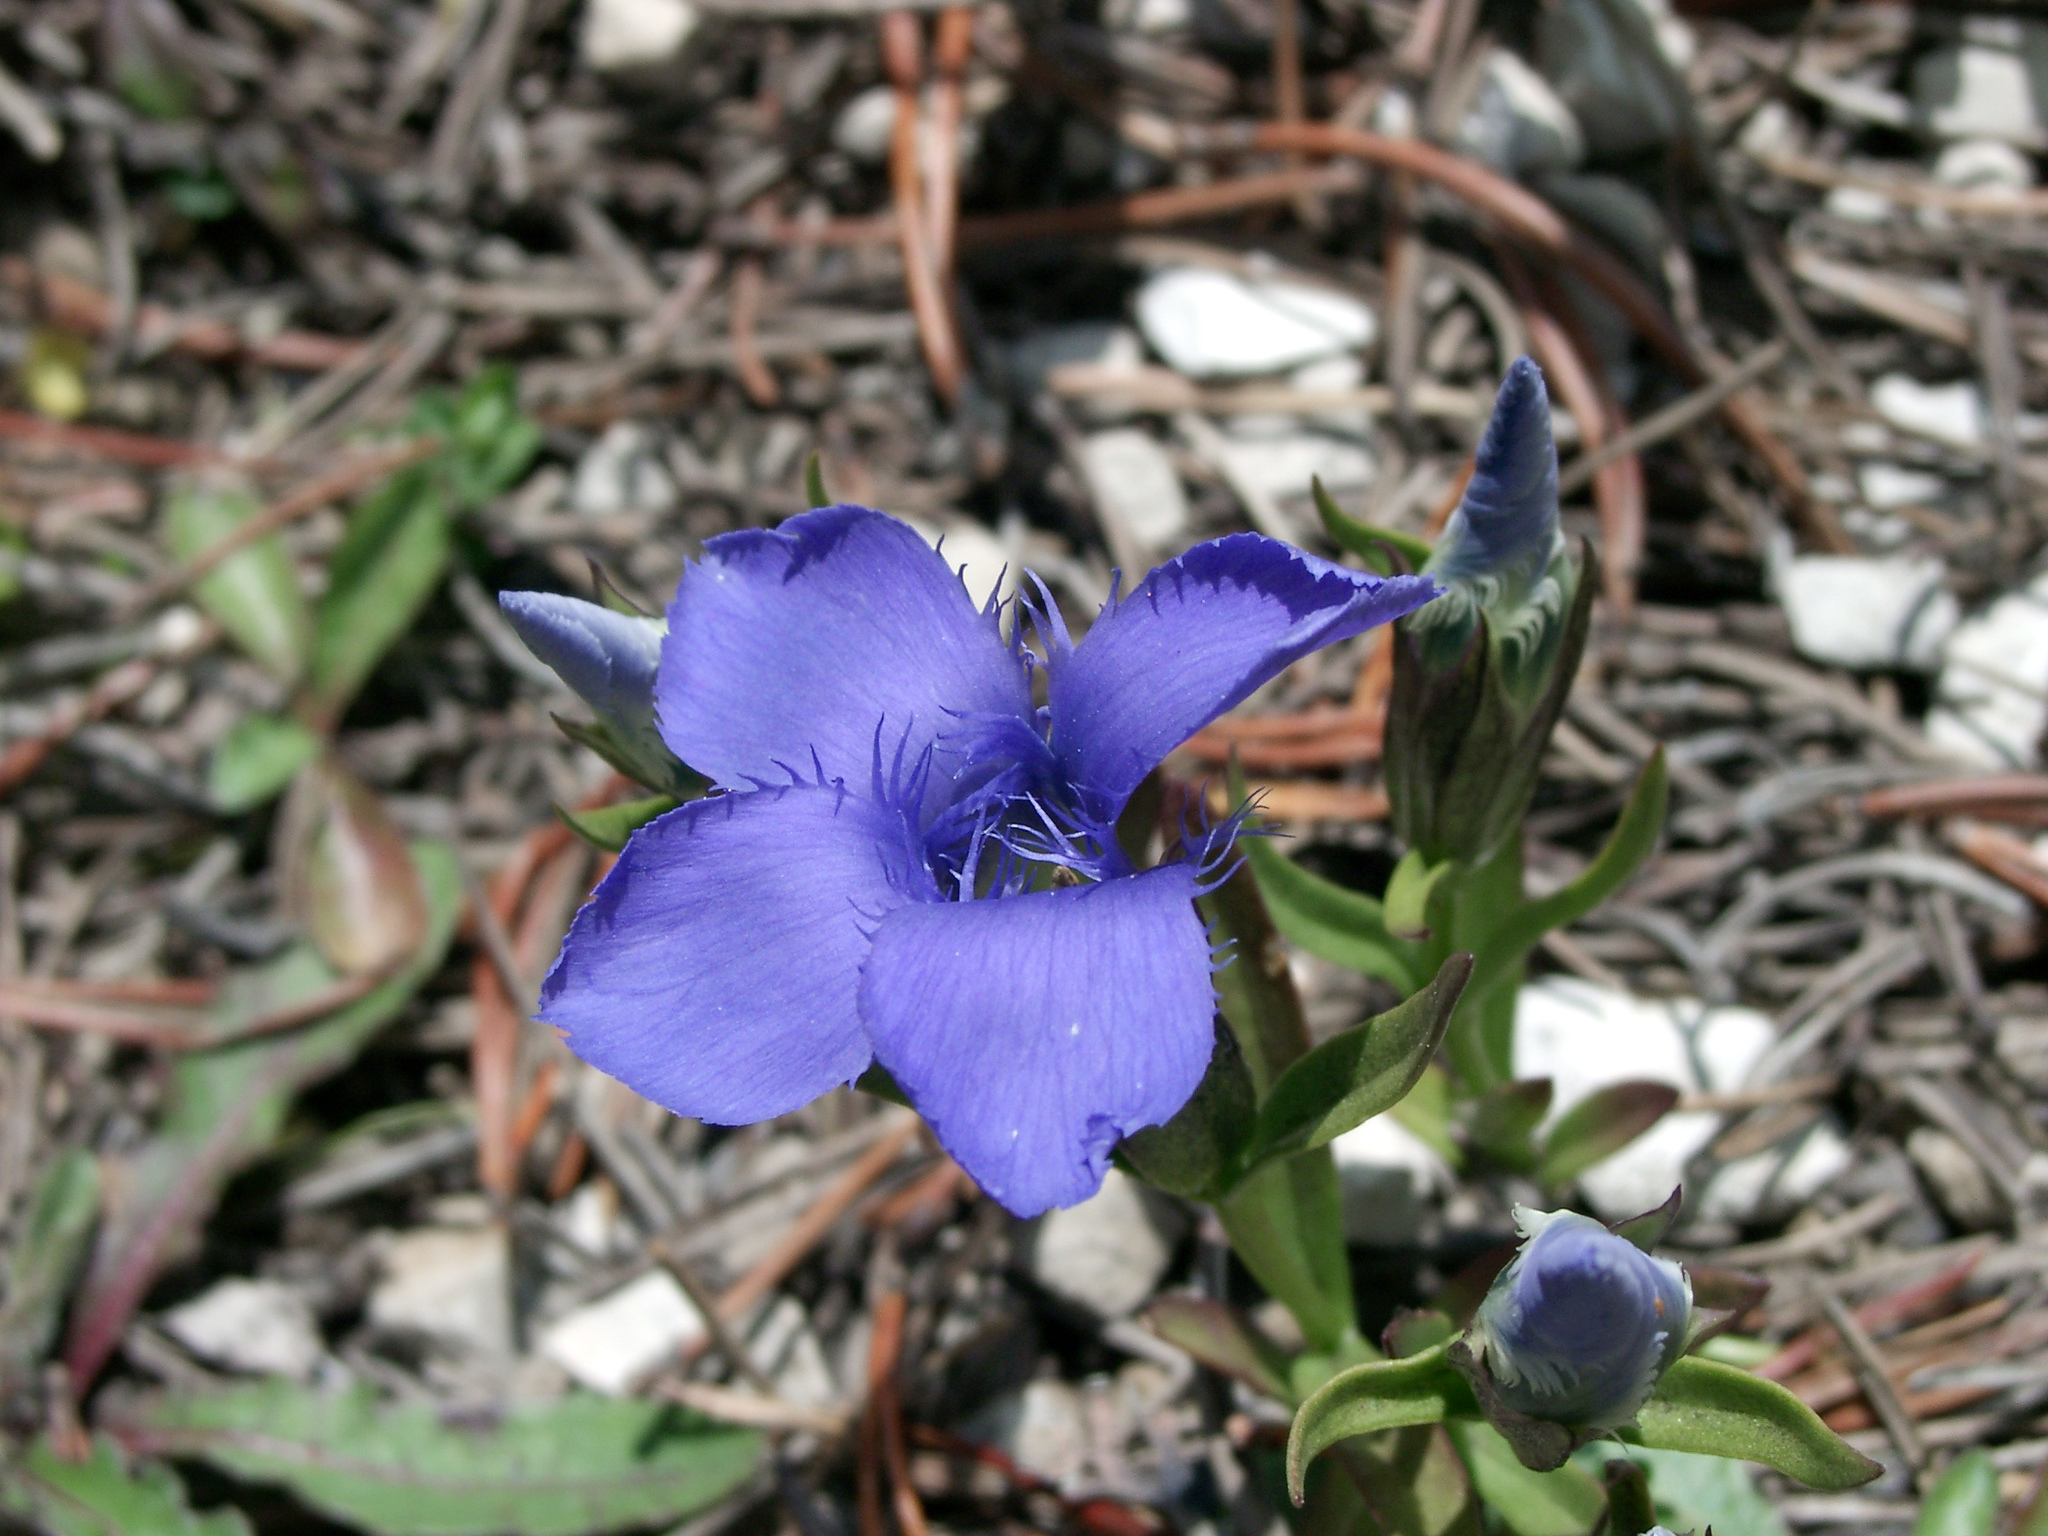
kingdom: Plantae
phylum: Tracheophyta
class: Magnoliopsida
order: Gentianales
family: Gentianaceae
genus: Gentianopsis
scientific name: Gentianopsis ciliata
